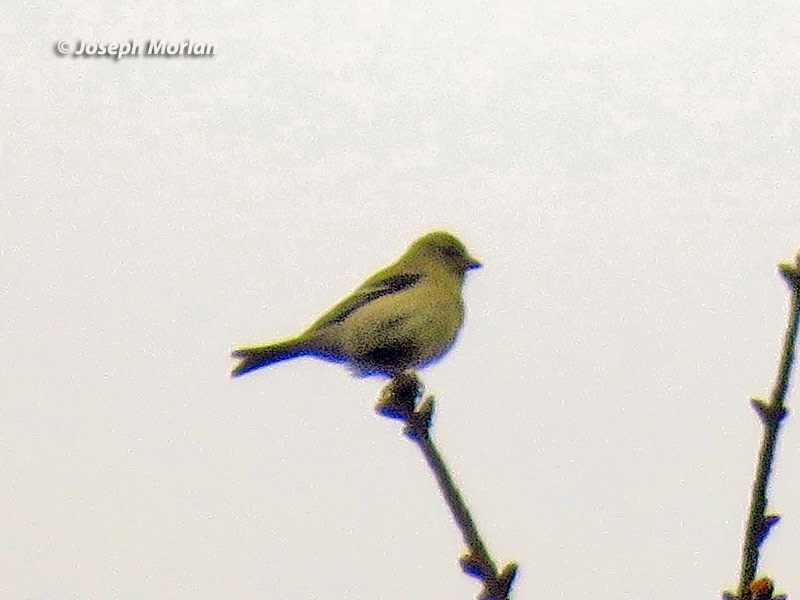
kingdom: Animalia
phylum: Chordata
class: Aves
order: Passeriformes
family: Fringillidae
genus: Spinus
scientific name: Spinus tristis
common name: American goldfinch
